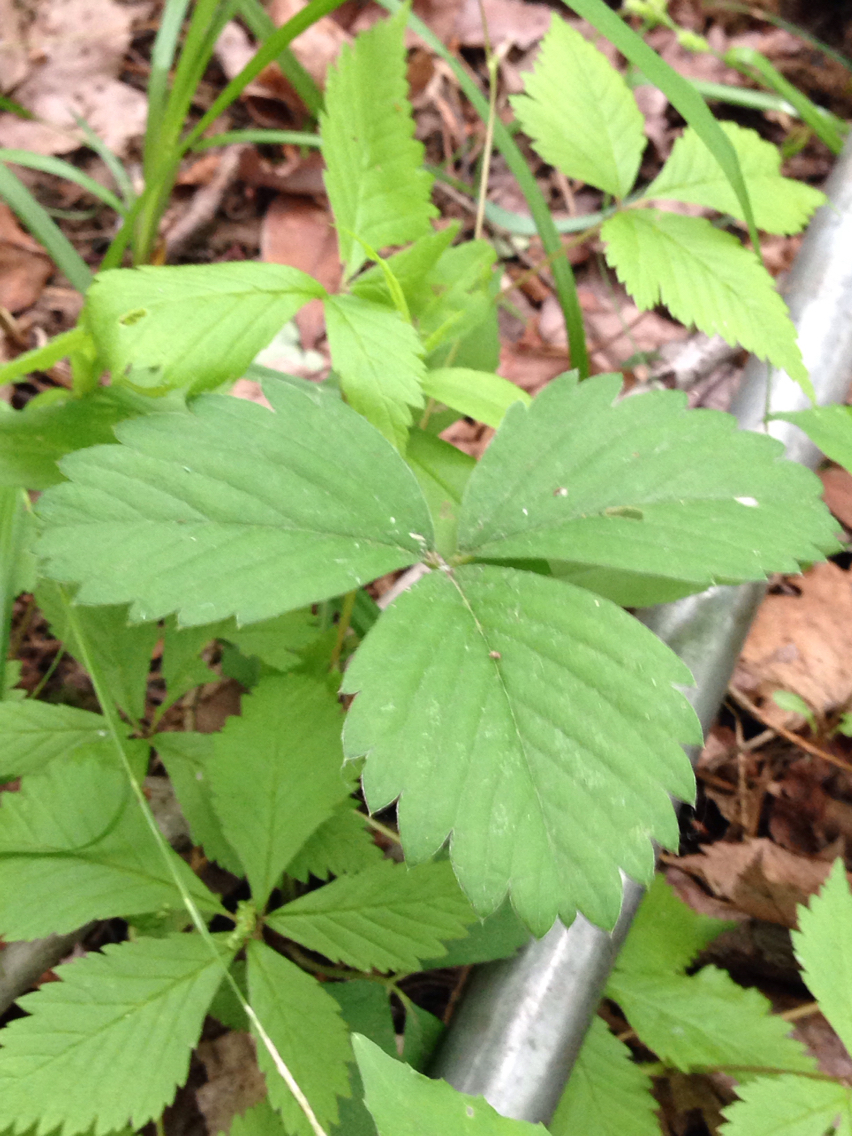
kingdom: Plantae
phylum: Tracheophyta
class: Magnoliopsida
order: Rosales
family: Rosaceae
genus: Fragaria
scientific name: Fragaria virginiana
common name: Thickleaved wild strawberry
